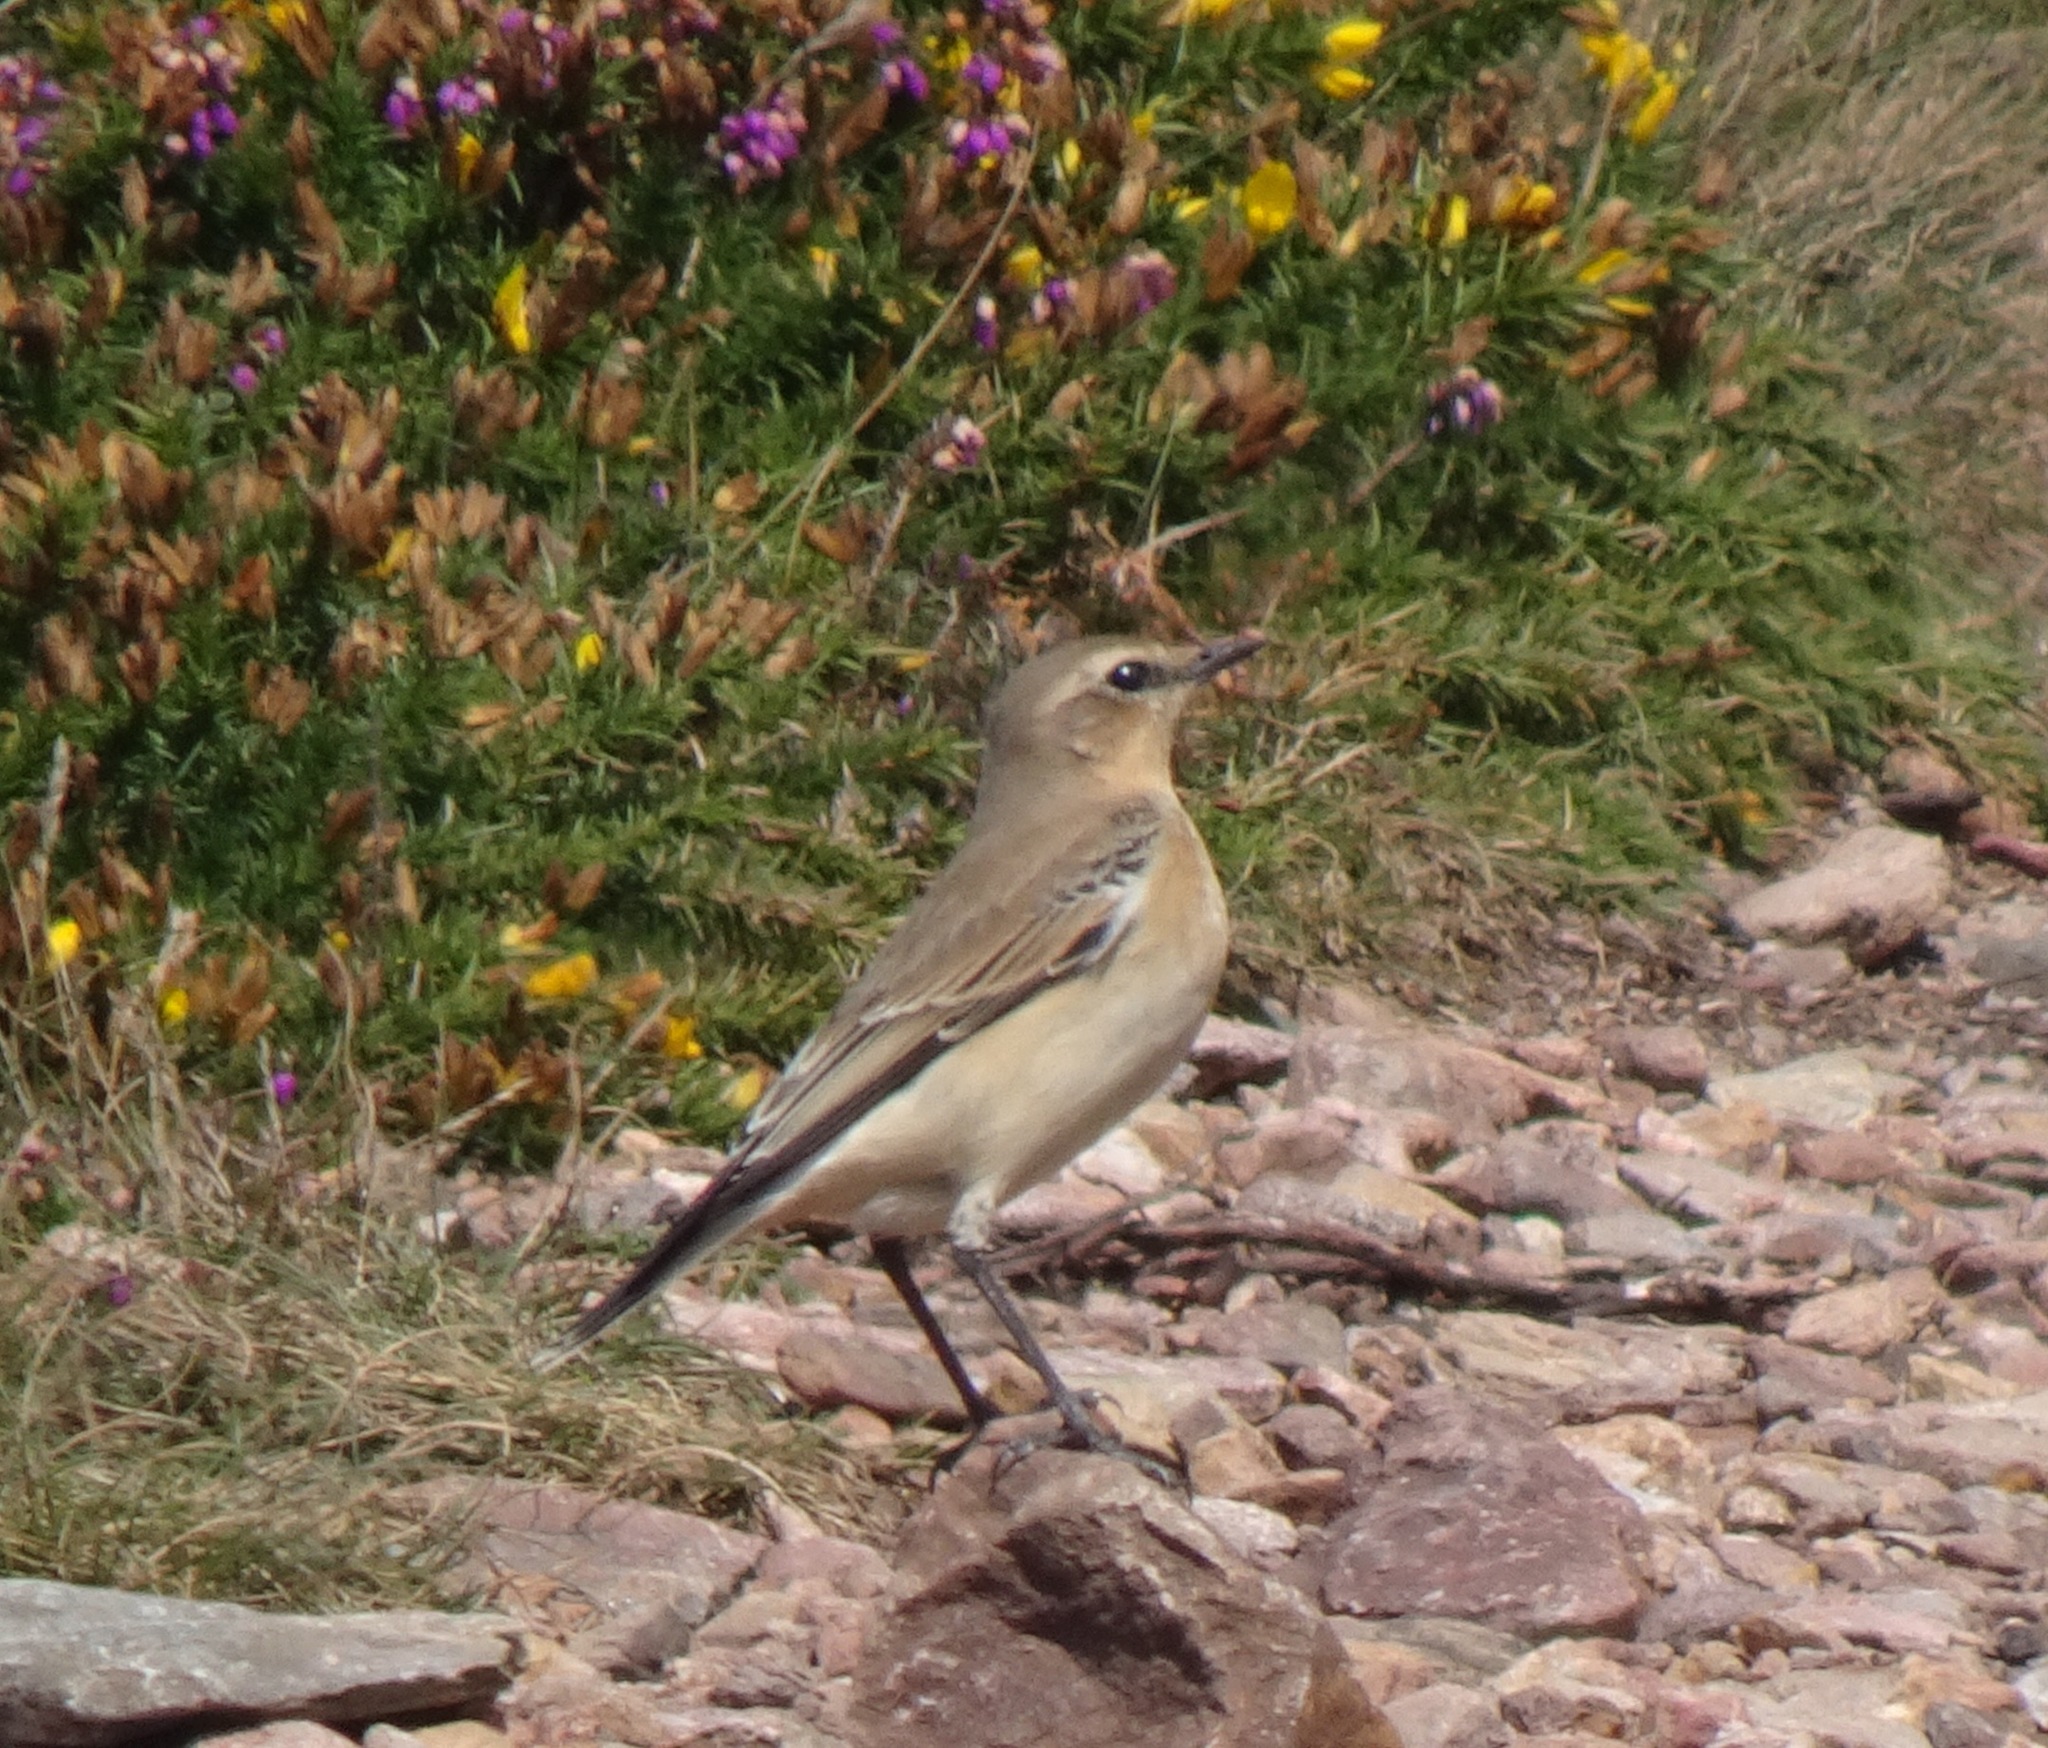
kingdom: Animalia
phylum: Chordata
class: Aves
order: Passeriformes
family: Muscicapidae
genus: Oenanthe
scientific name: Oenanthe oenanthe
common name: Northern wheatear
